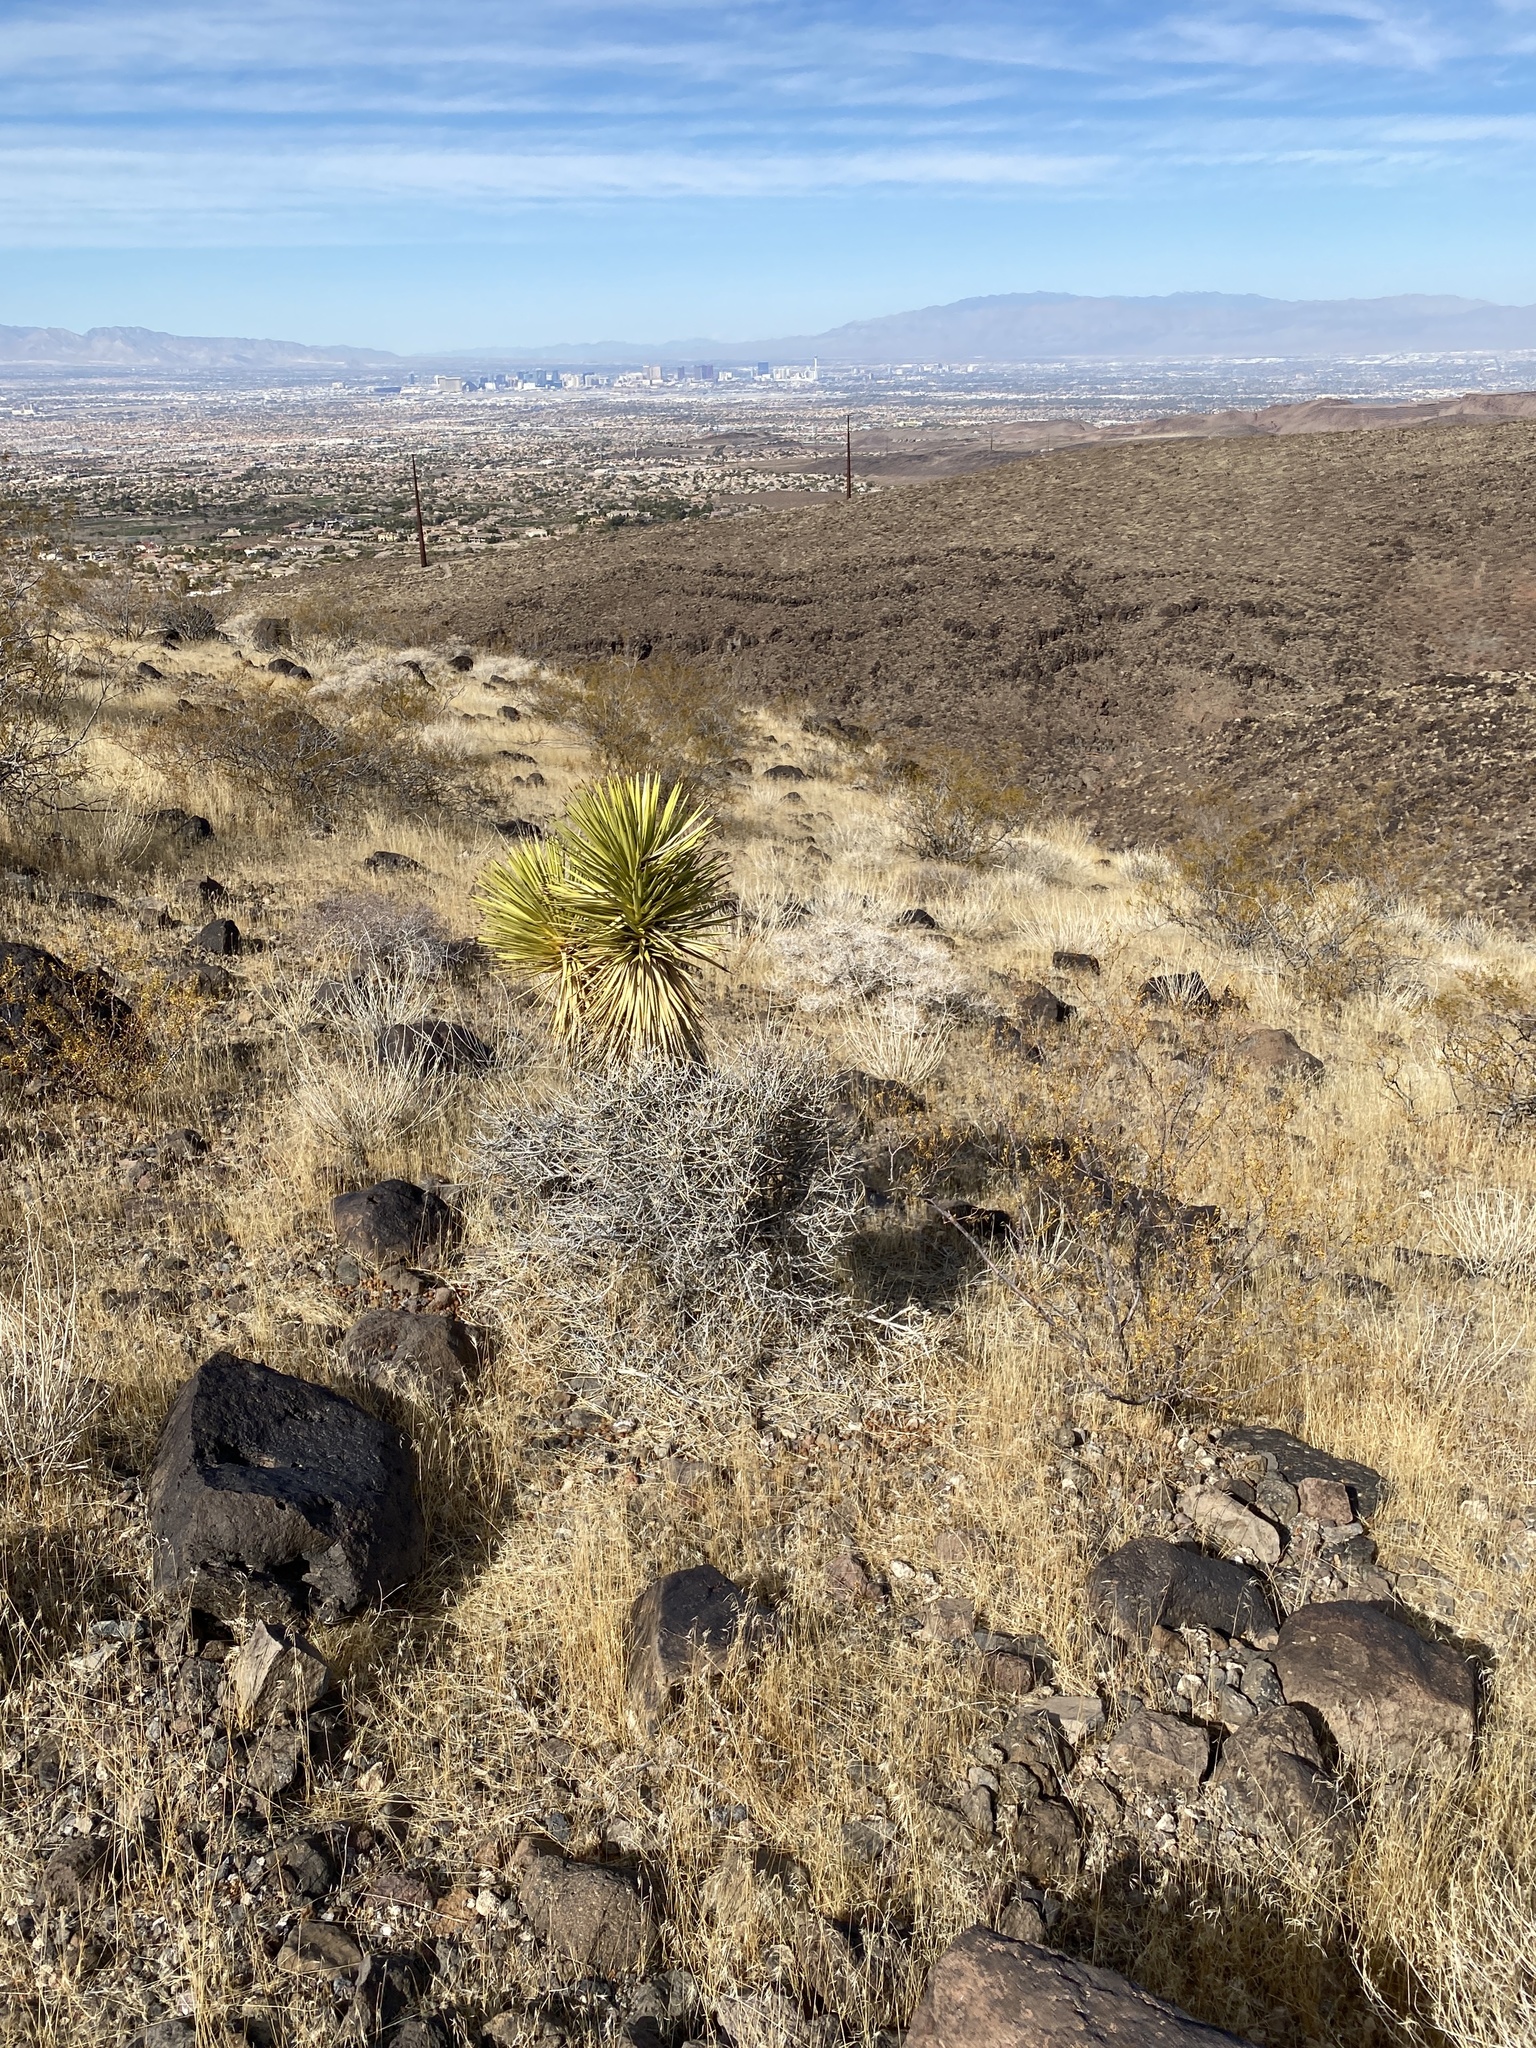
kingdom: Plantae
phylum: Tracheophyta
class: Liliopsida
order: Asparagales
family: Asparagaceae
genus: Yucca
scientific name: Yucca schidigera
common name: Mojave yucca
